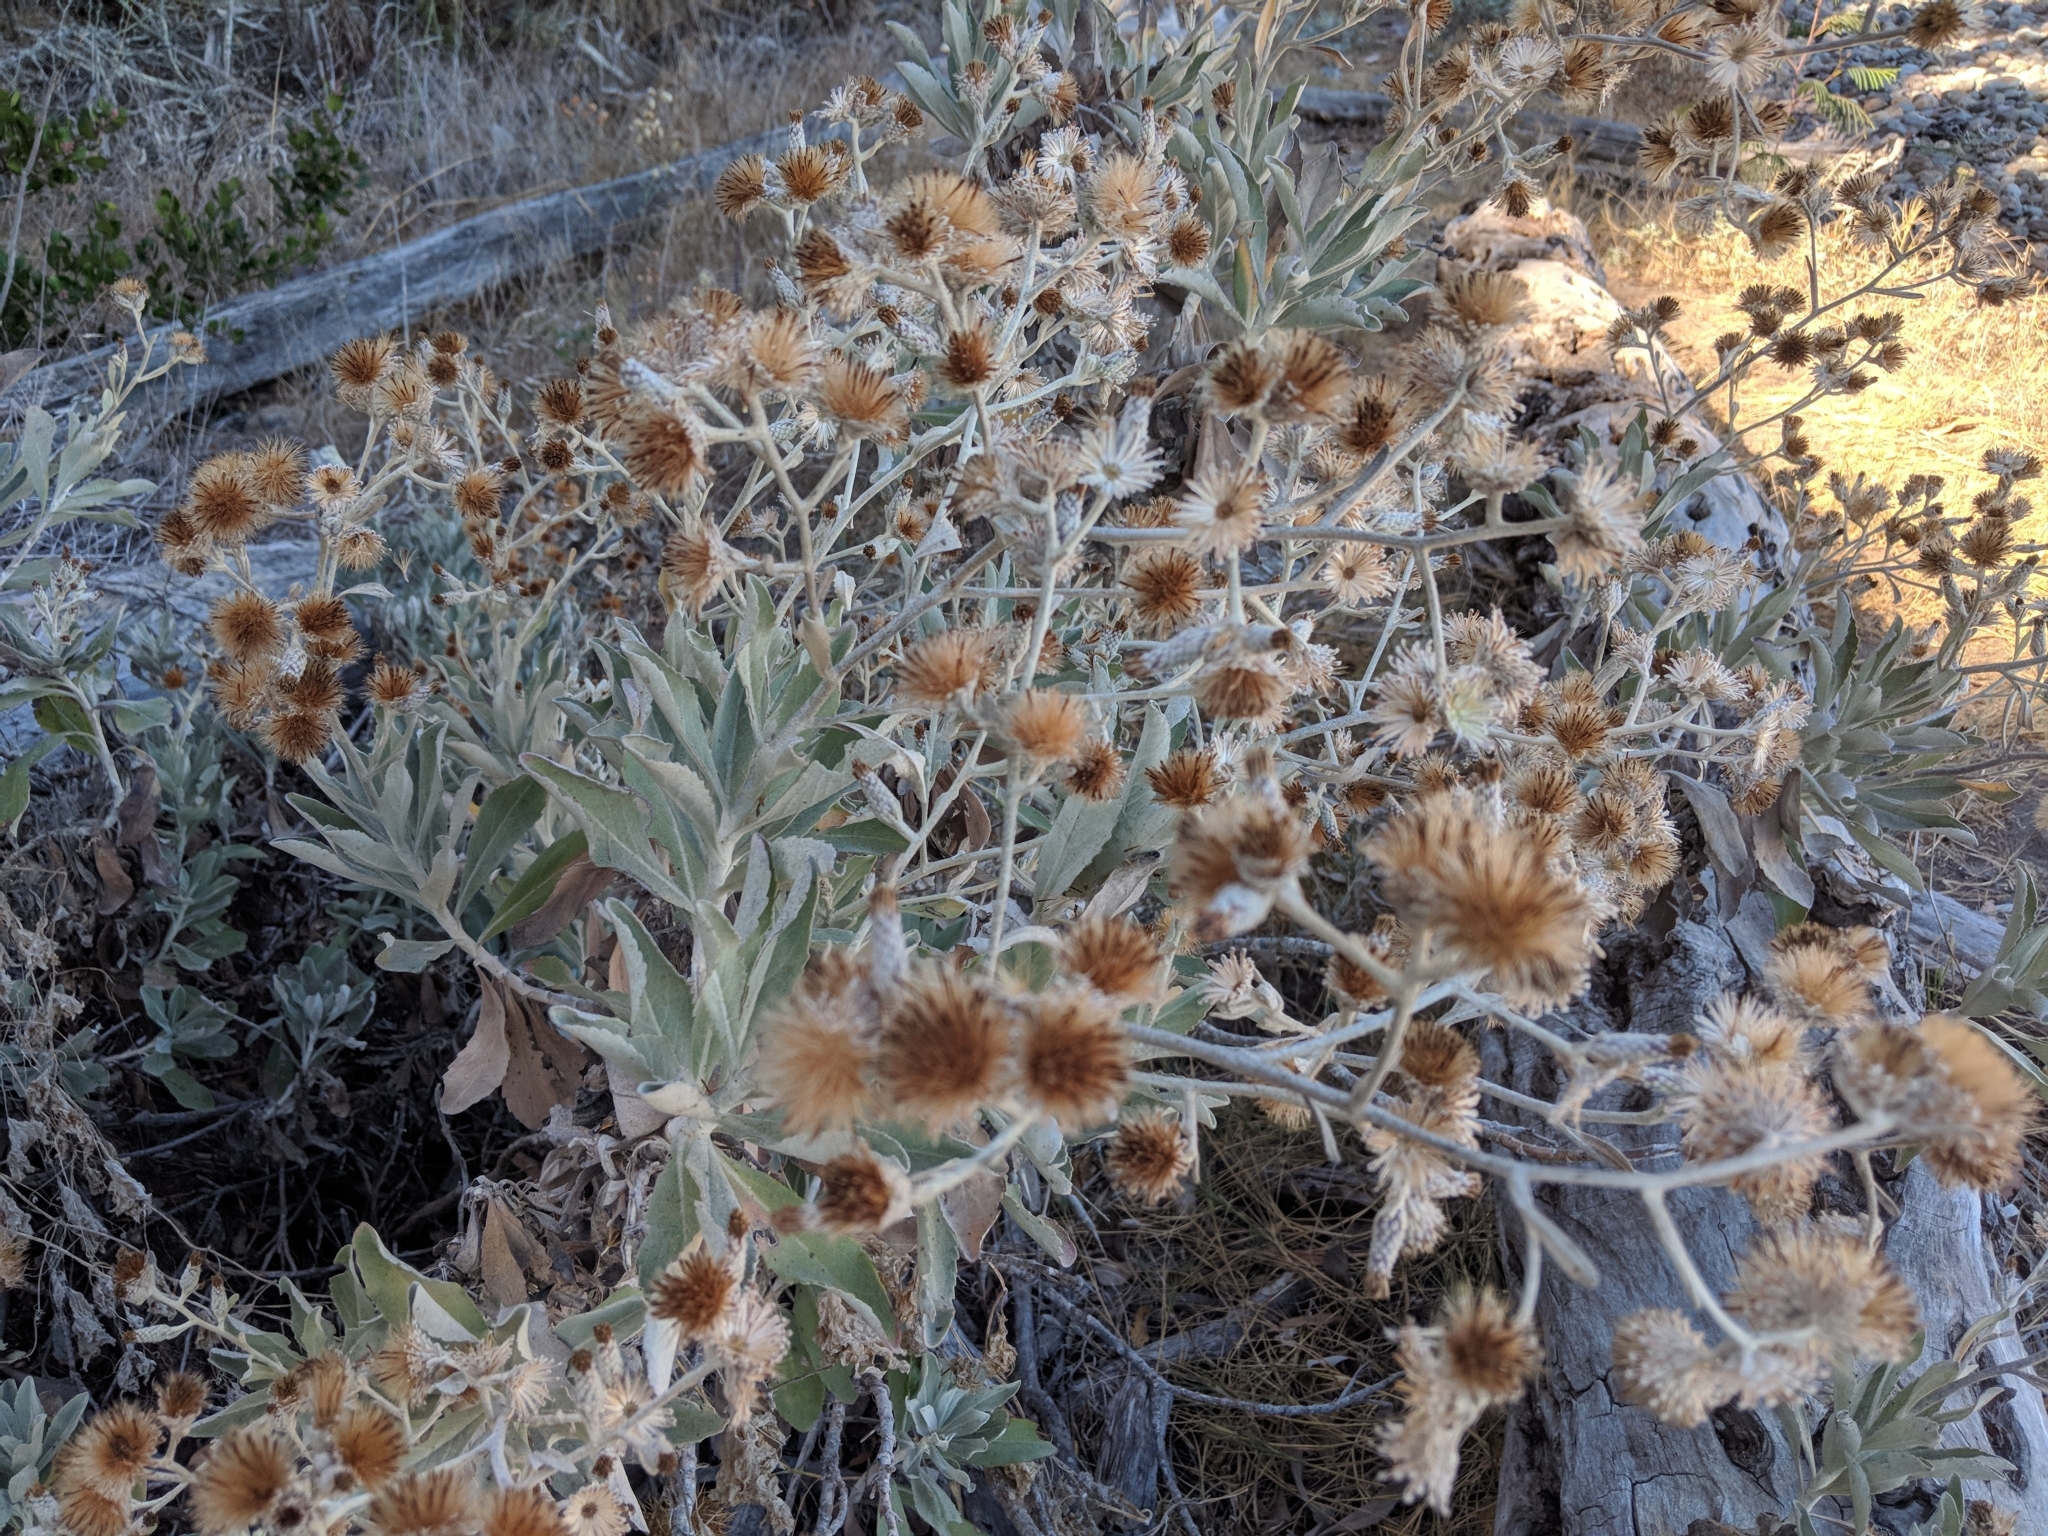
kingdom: Plantae
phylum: Tracheophyta
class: Magnoliopsida
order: Asterales
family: Asteraceae
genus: Hazardia
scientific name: Hazardia detonsa
